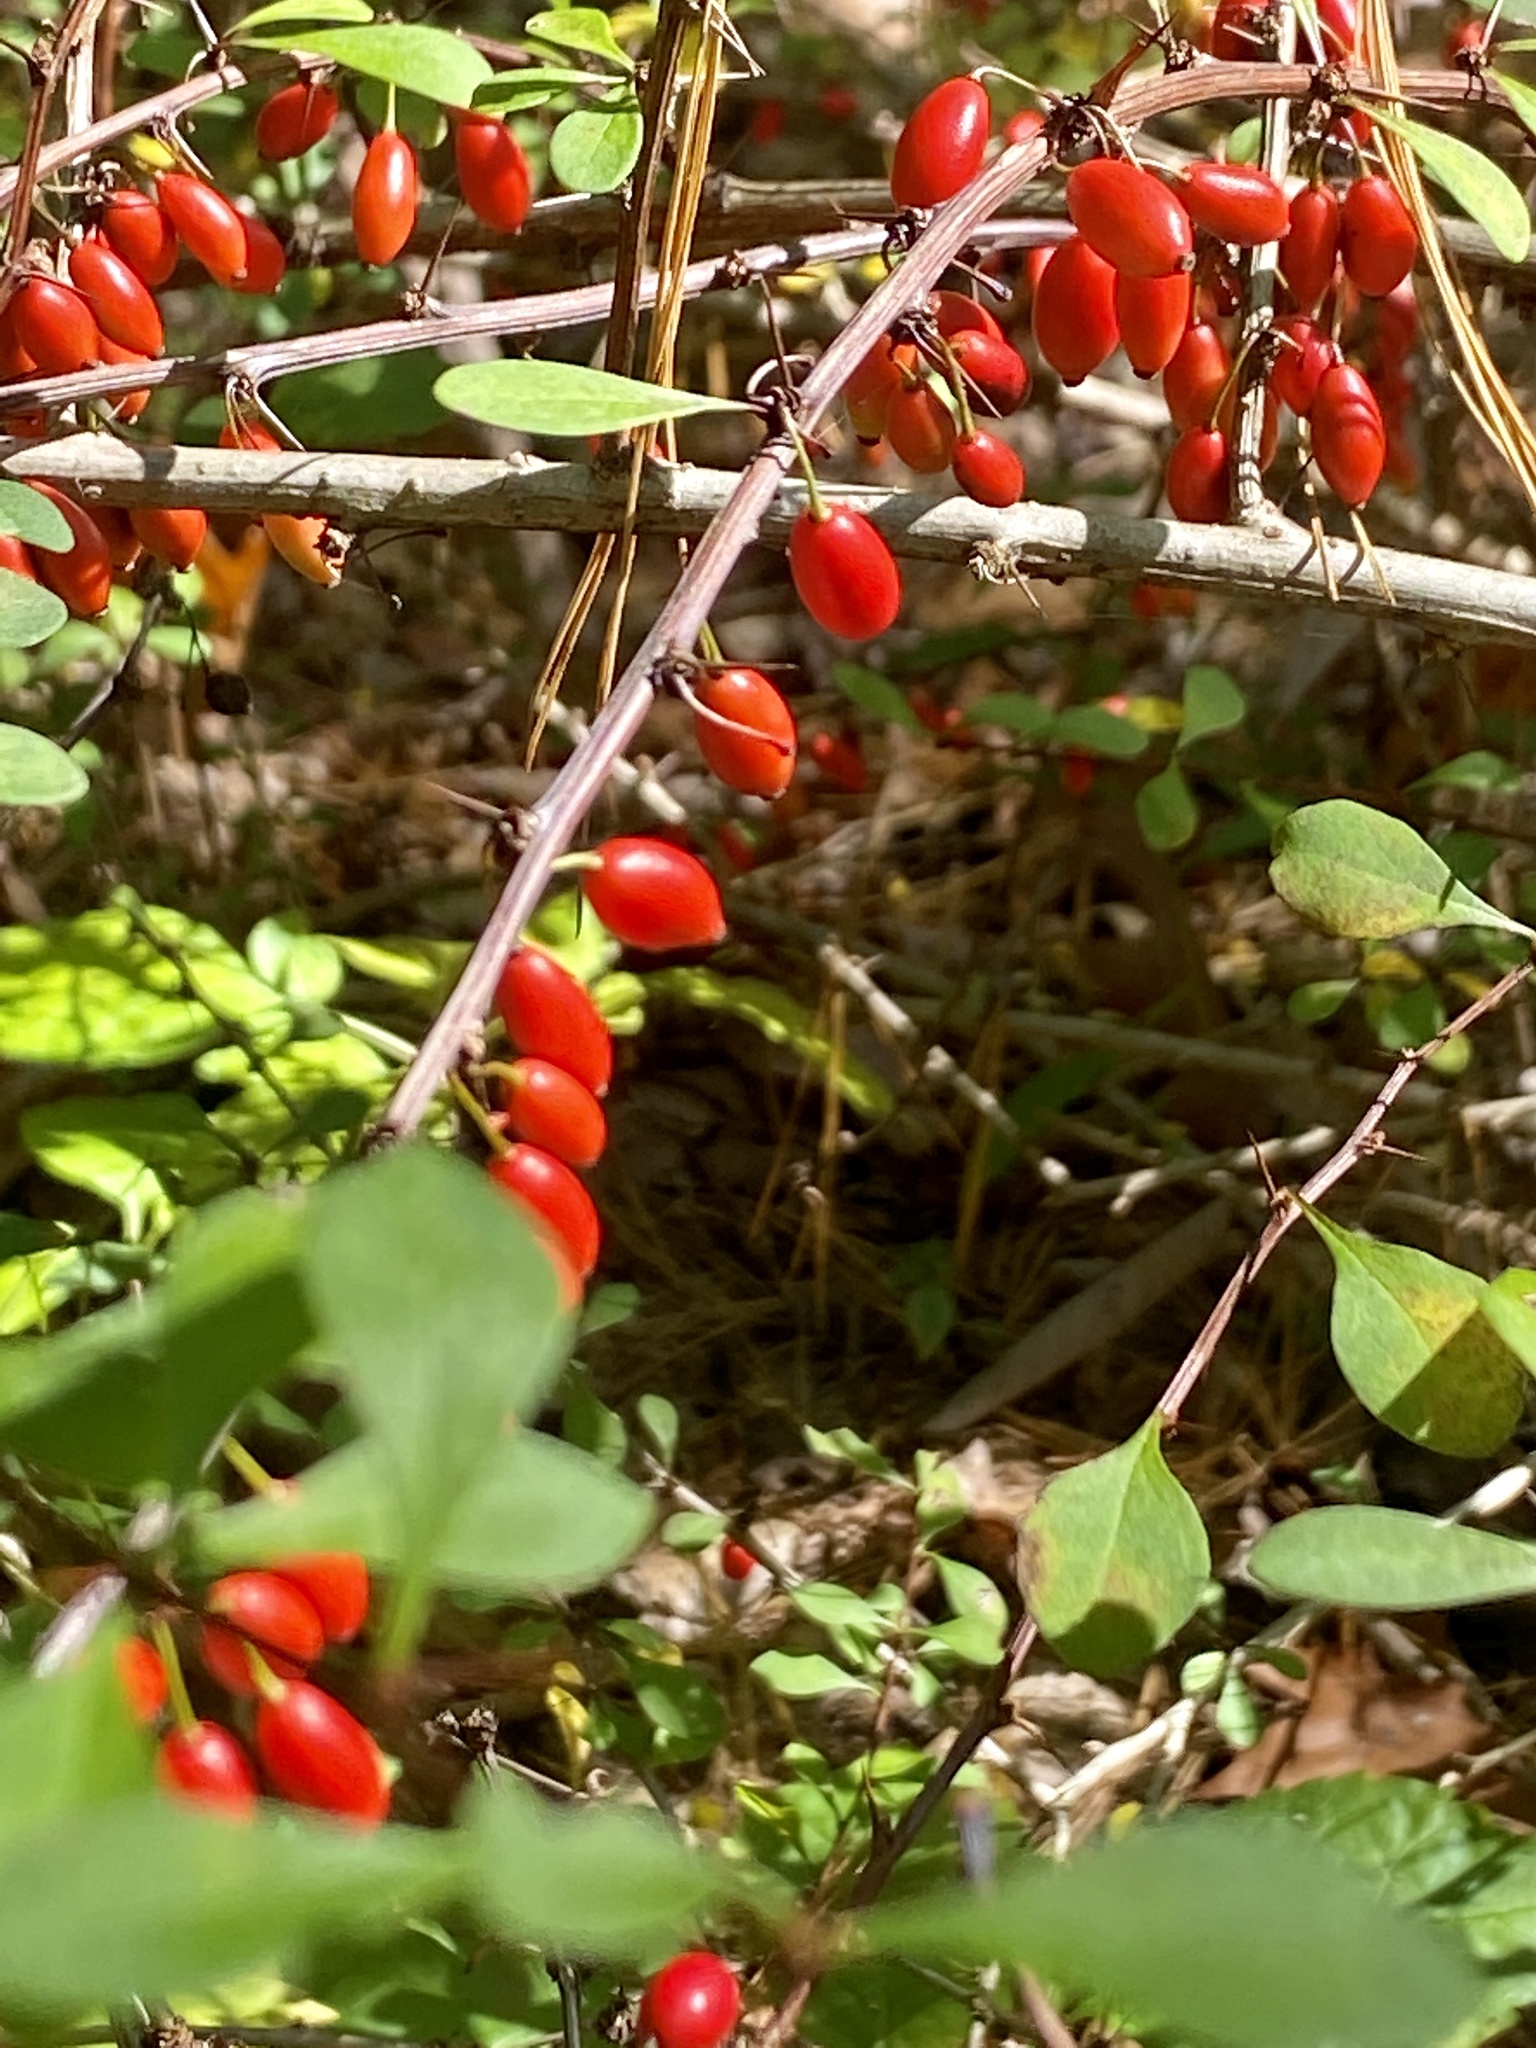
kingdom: Plantae
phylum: Tracheophyta
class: Magnoliopsida
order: Ranunculales
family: Berberidaceae
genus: Berberis
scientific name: Berberis thunbergii
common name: Japanese barberry
